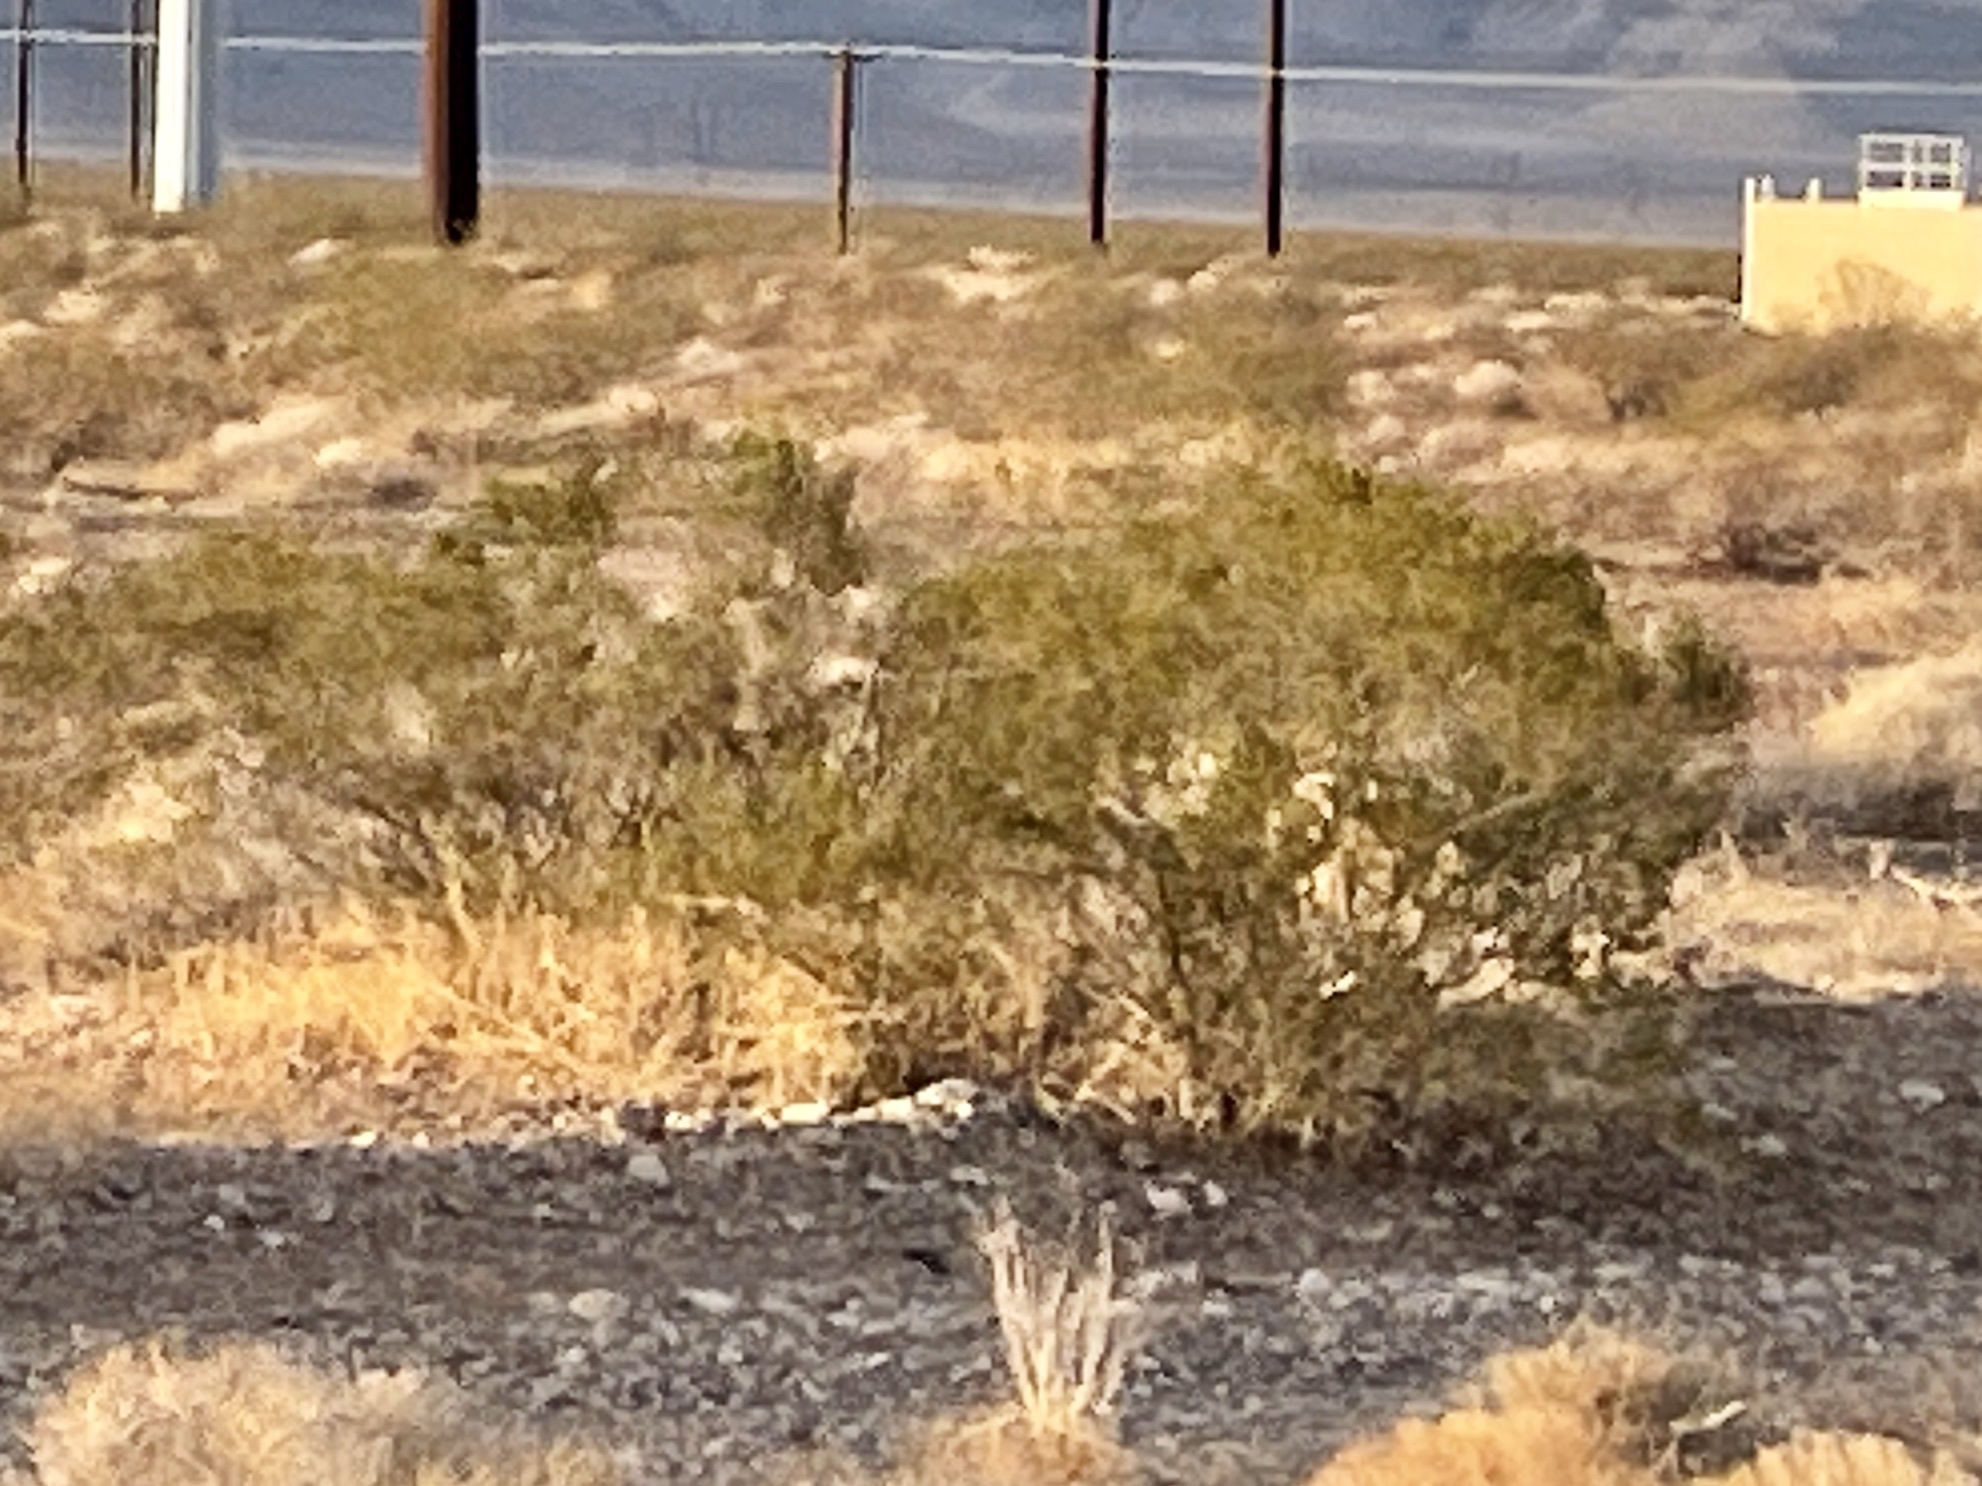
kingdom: Plantae
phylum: Tracheophyta
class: Magnoliopsida
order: Zygophyllales
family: Zygophyllaceae
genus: Larrea
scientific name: Larrea tridentata
